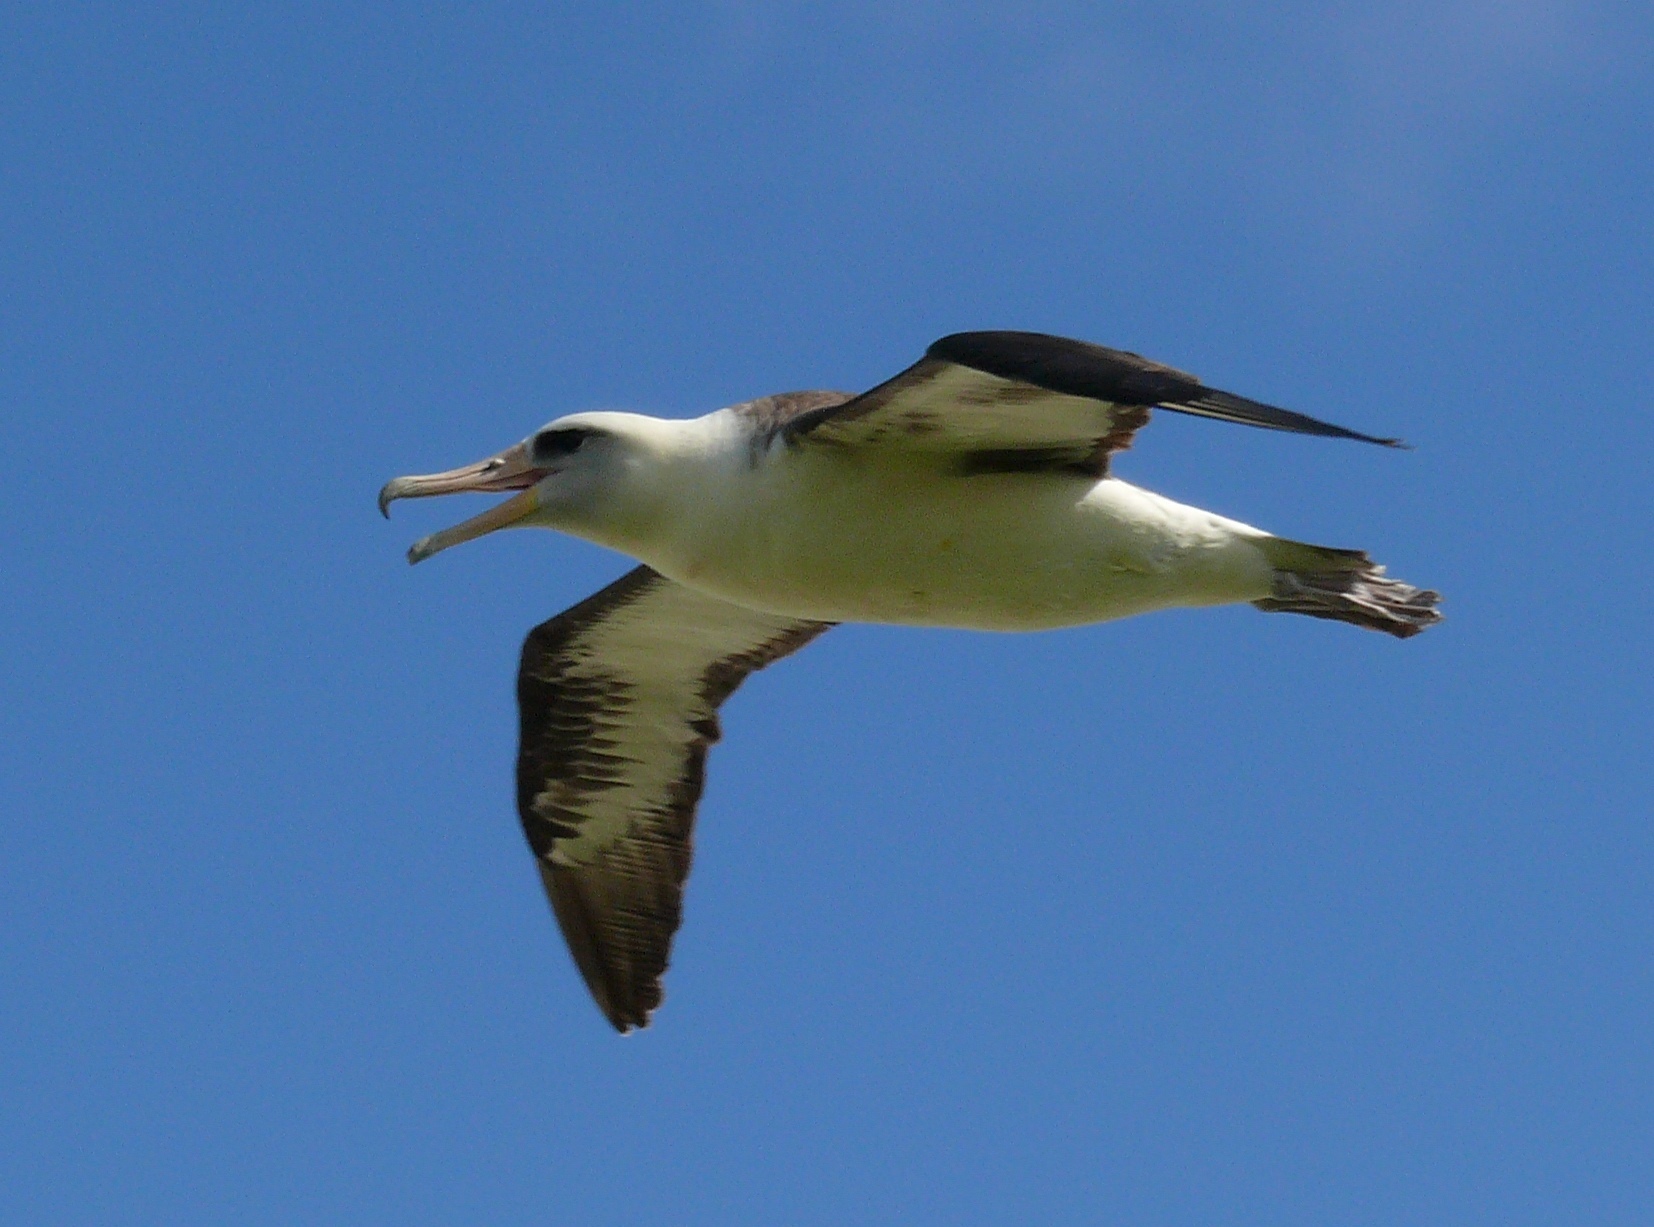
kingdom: Animalia
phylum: Chordata
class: Aves
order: Procellariiformes
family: Diomedeidae
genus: Phoebastria
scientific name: Phoebastria immutabilis
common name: Laysan albatross
